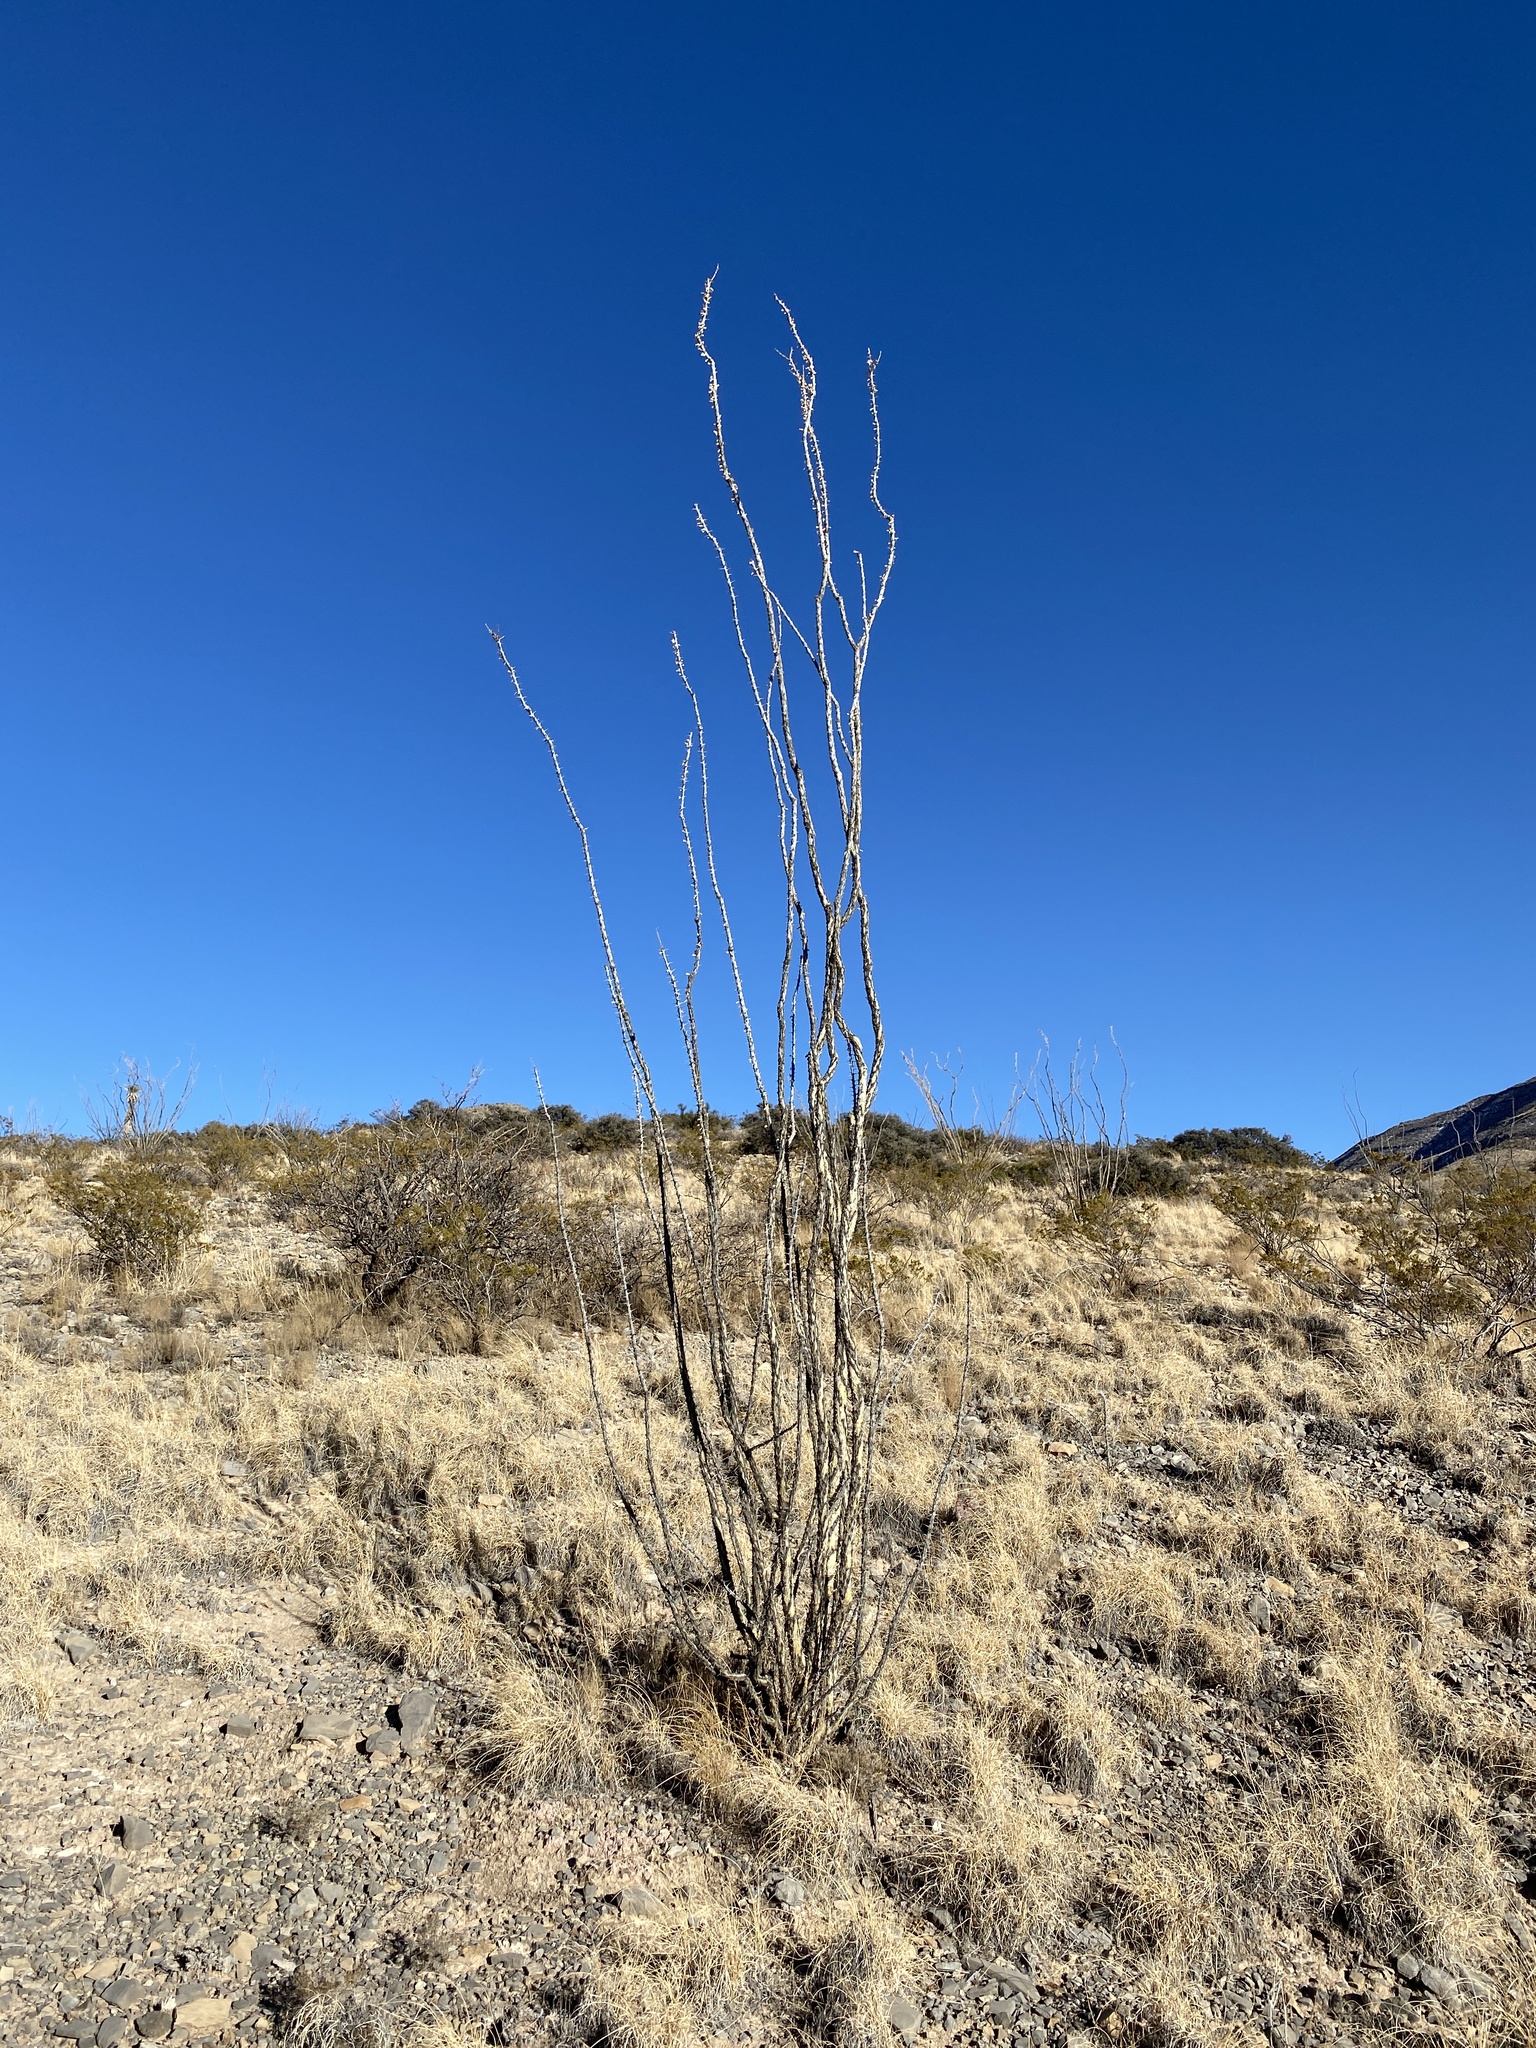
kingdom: Plantae
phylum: Tracheophyta
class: Magnoliopsida
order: Ericales
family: Fouquieriaceae
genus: Fouquieria
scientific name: Fouquieria splendens
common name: Vine-cactus
